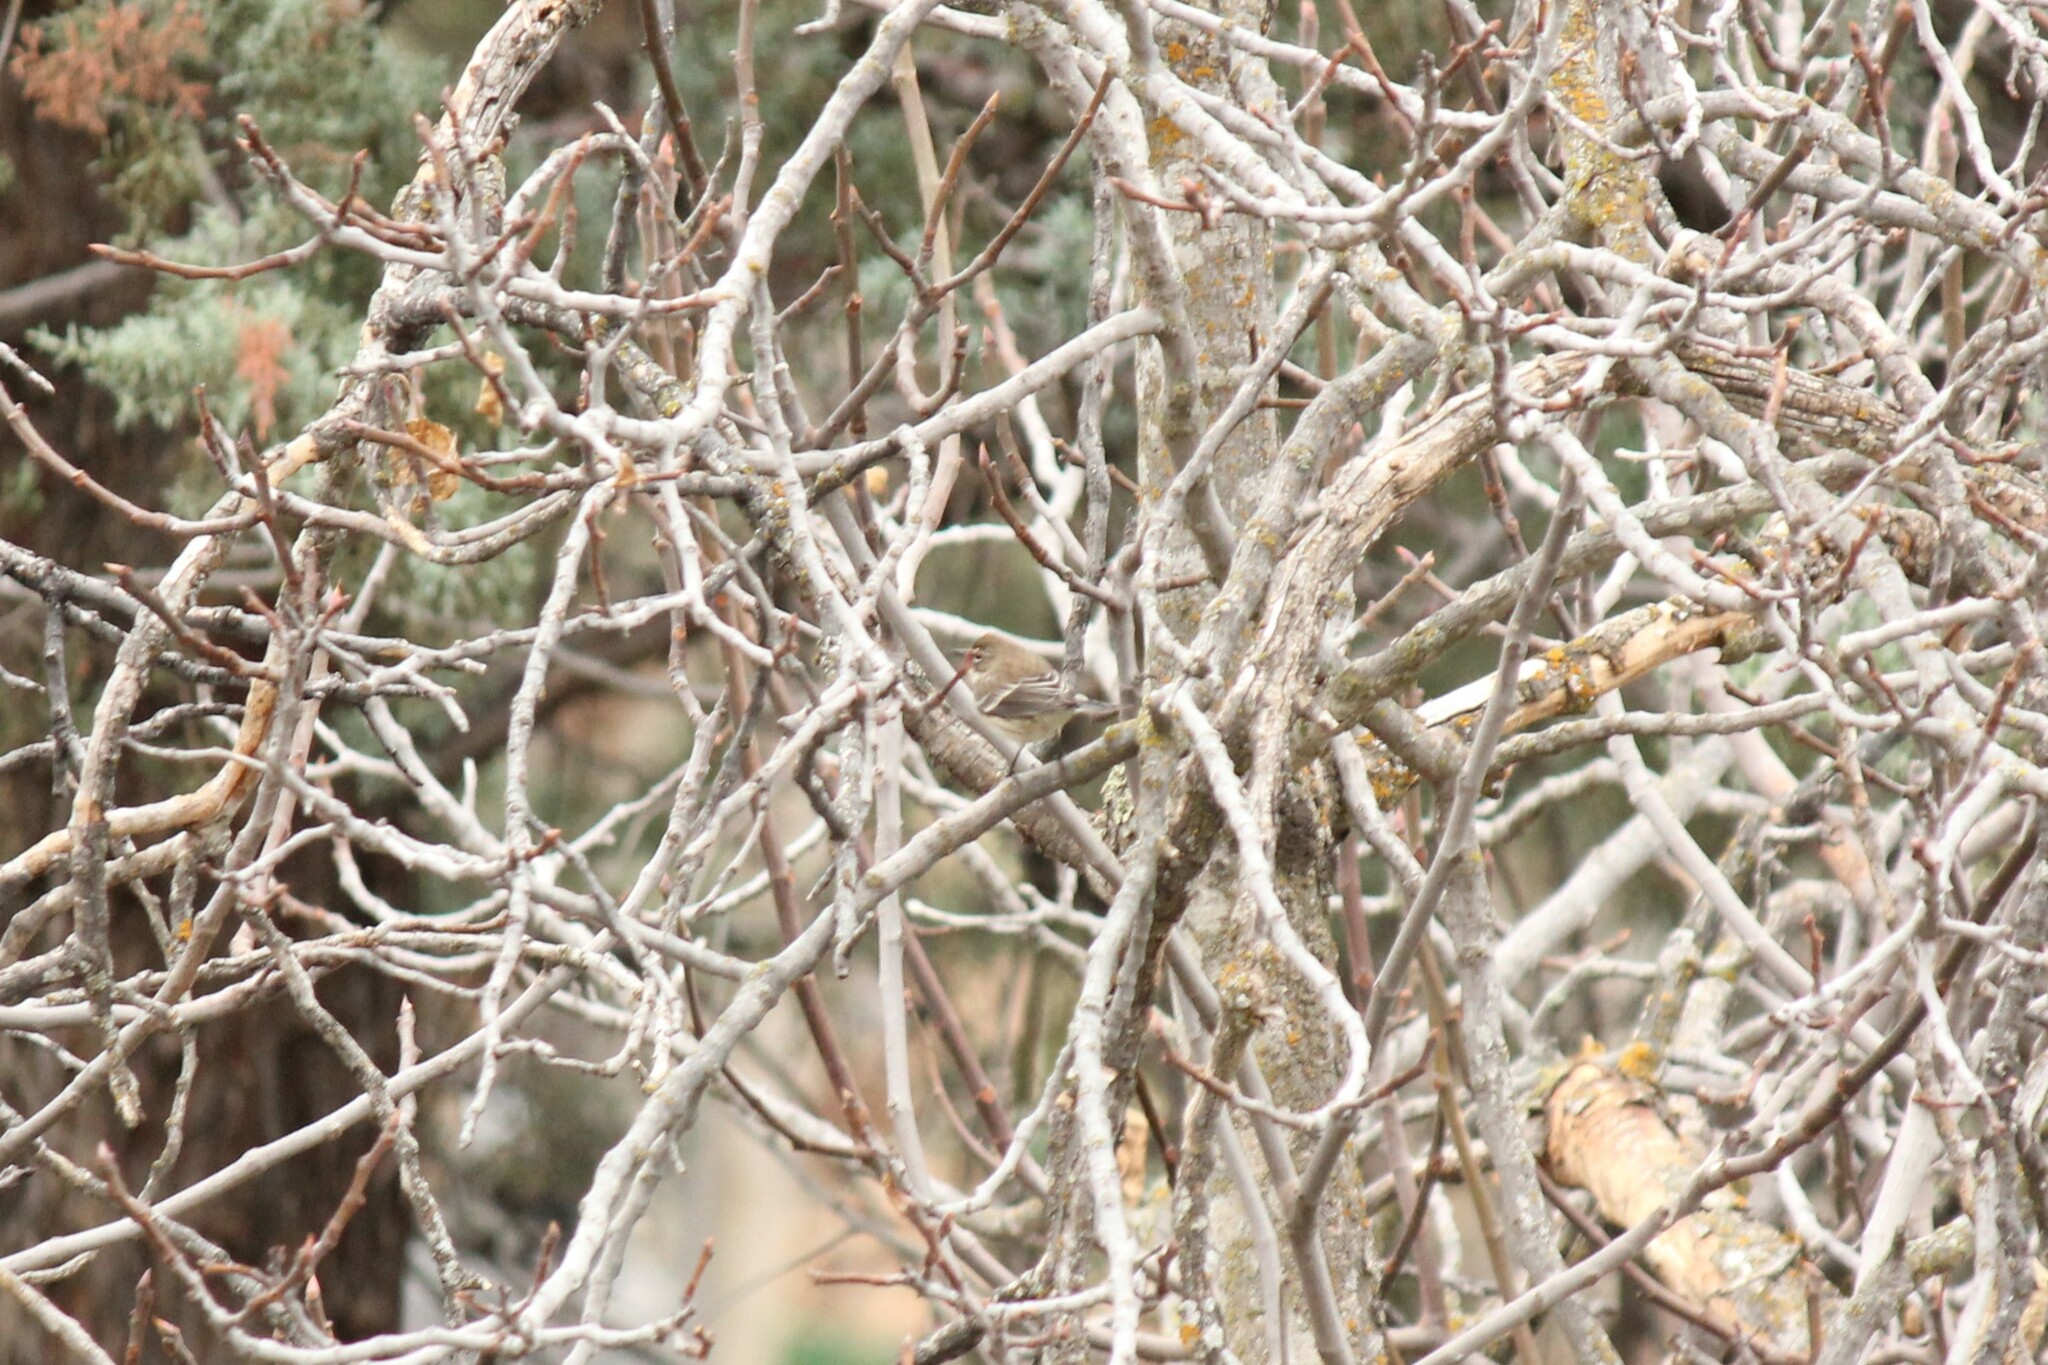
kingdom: Animalia
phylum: Chordata
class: Aves
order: Passeriformes
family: Parulidae
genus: Setophaga
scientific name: Setophaga coronata
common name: Myrtle warbler
